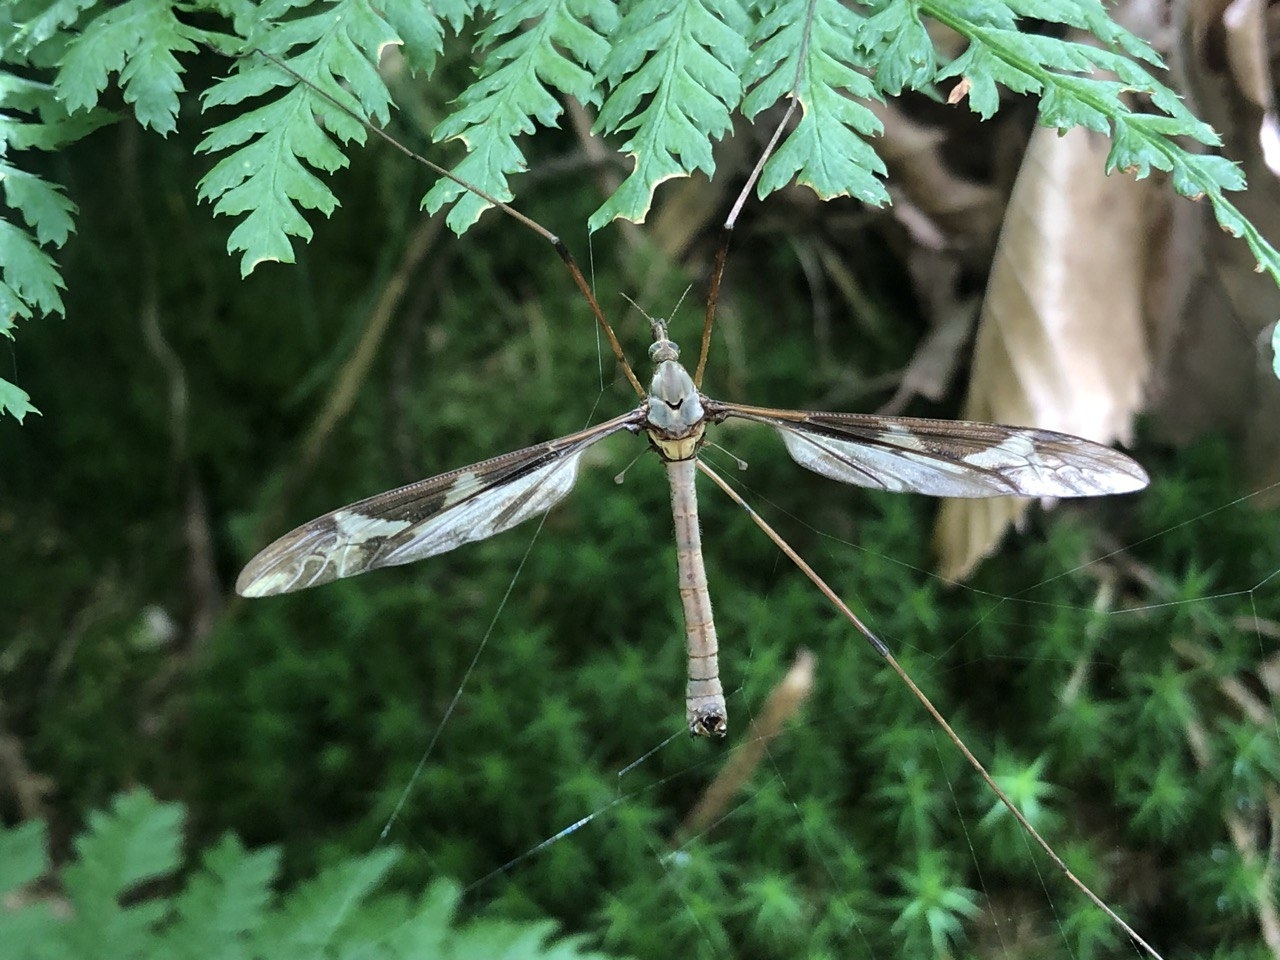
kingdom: Animalia
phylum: Arthropoda
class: Insecta
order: Diptera
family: Tipulidae
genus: Tipula
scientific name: Tipula maxima
